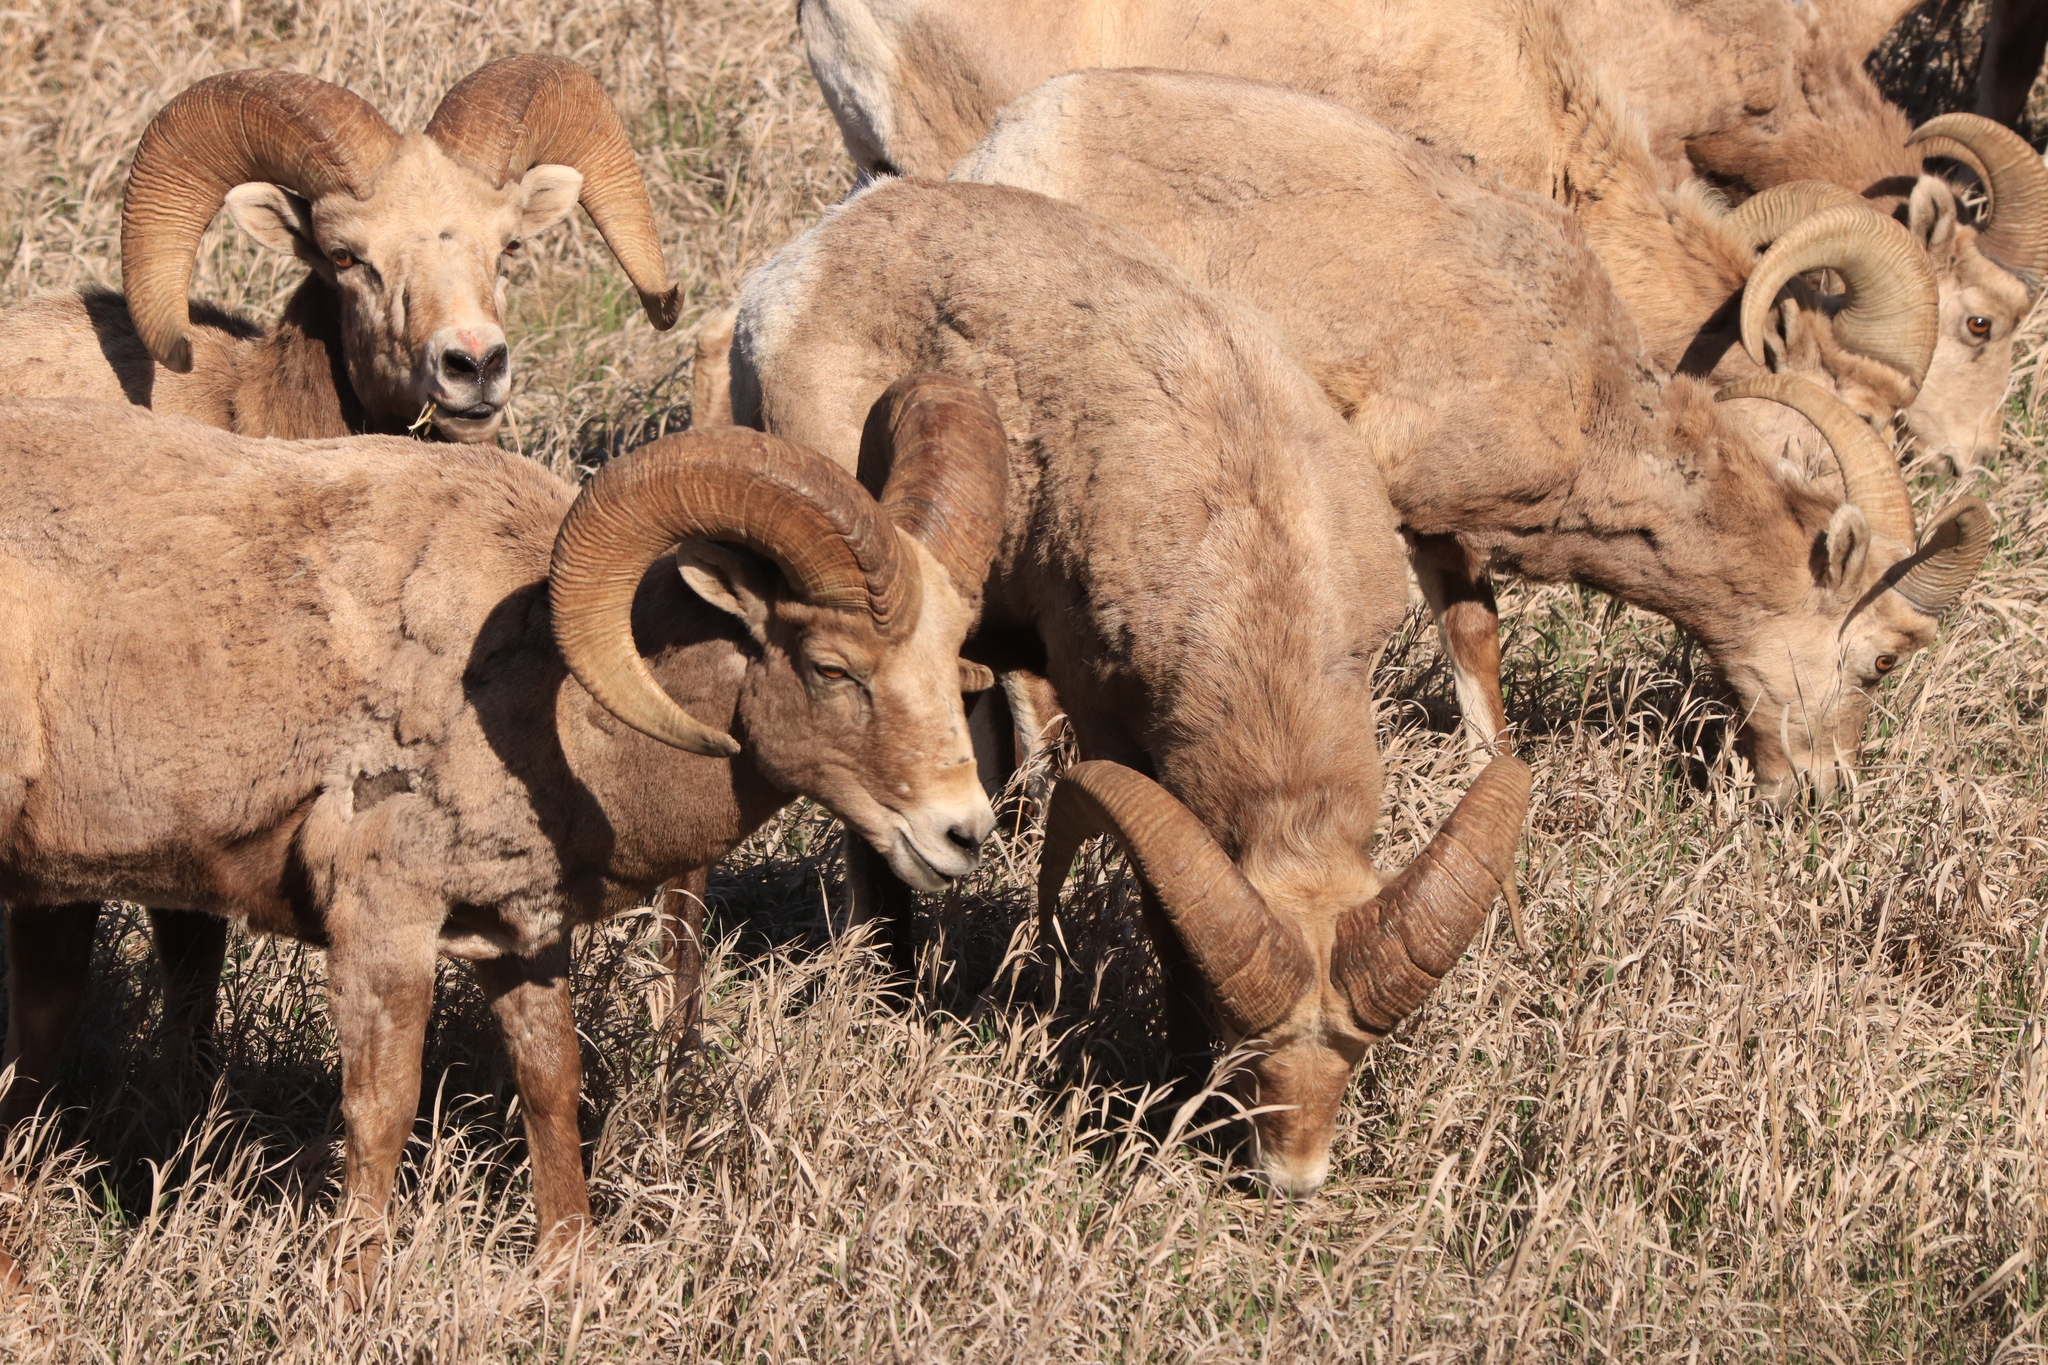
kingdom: Animalia
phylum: Chordata
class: Mammalia
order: Artiodactyla
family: Bovidae
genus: Ovis
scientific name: Ovis canadensis
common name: Bighorn sheep
